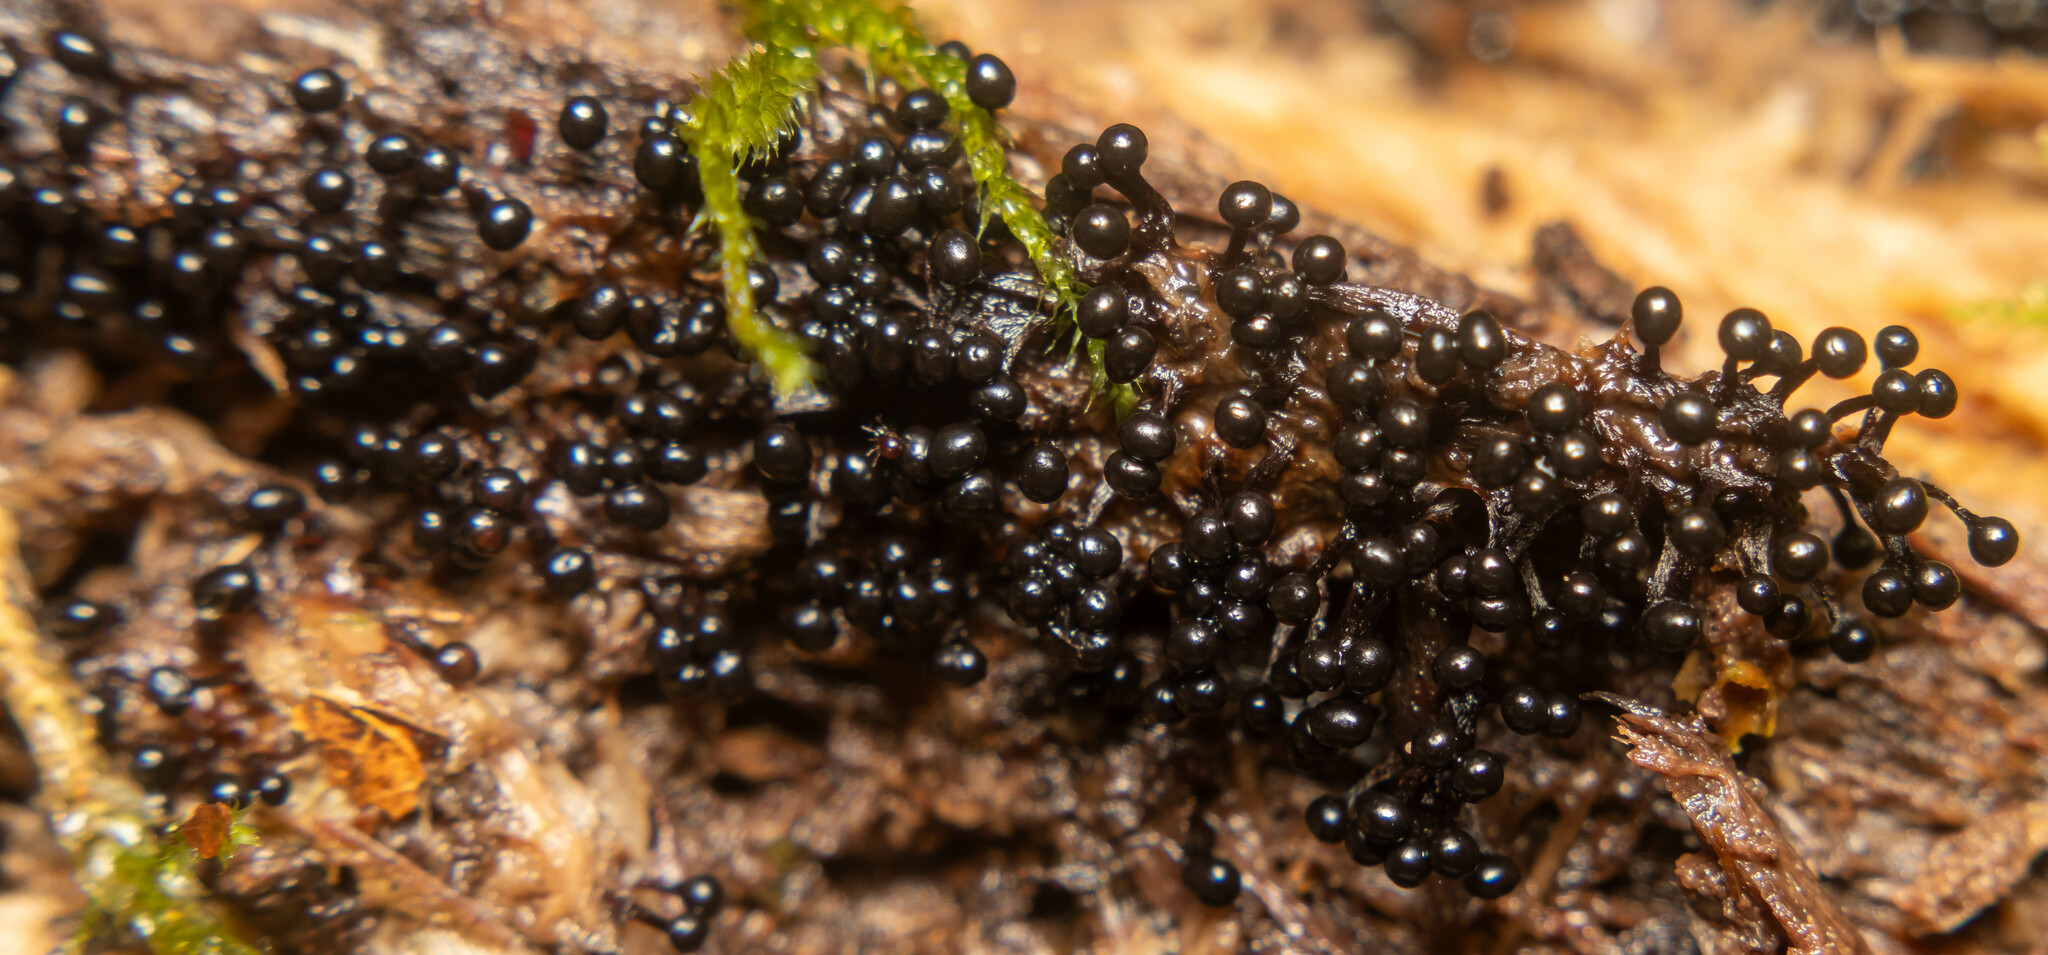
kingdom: Protozoa
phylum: Mycetozoa
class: Myxomycetes
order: Trichiales
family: Trichiaceae
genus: Metatrichia
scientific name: Metatrichia floriformis
